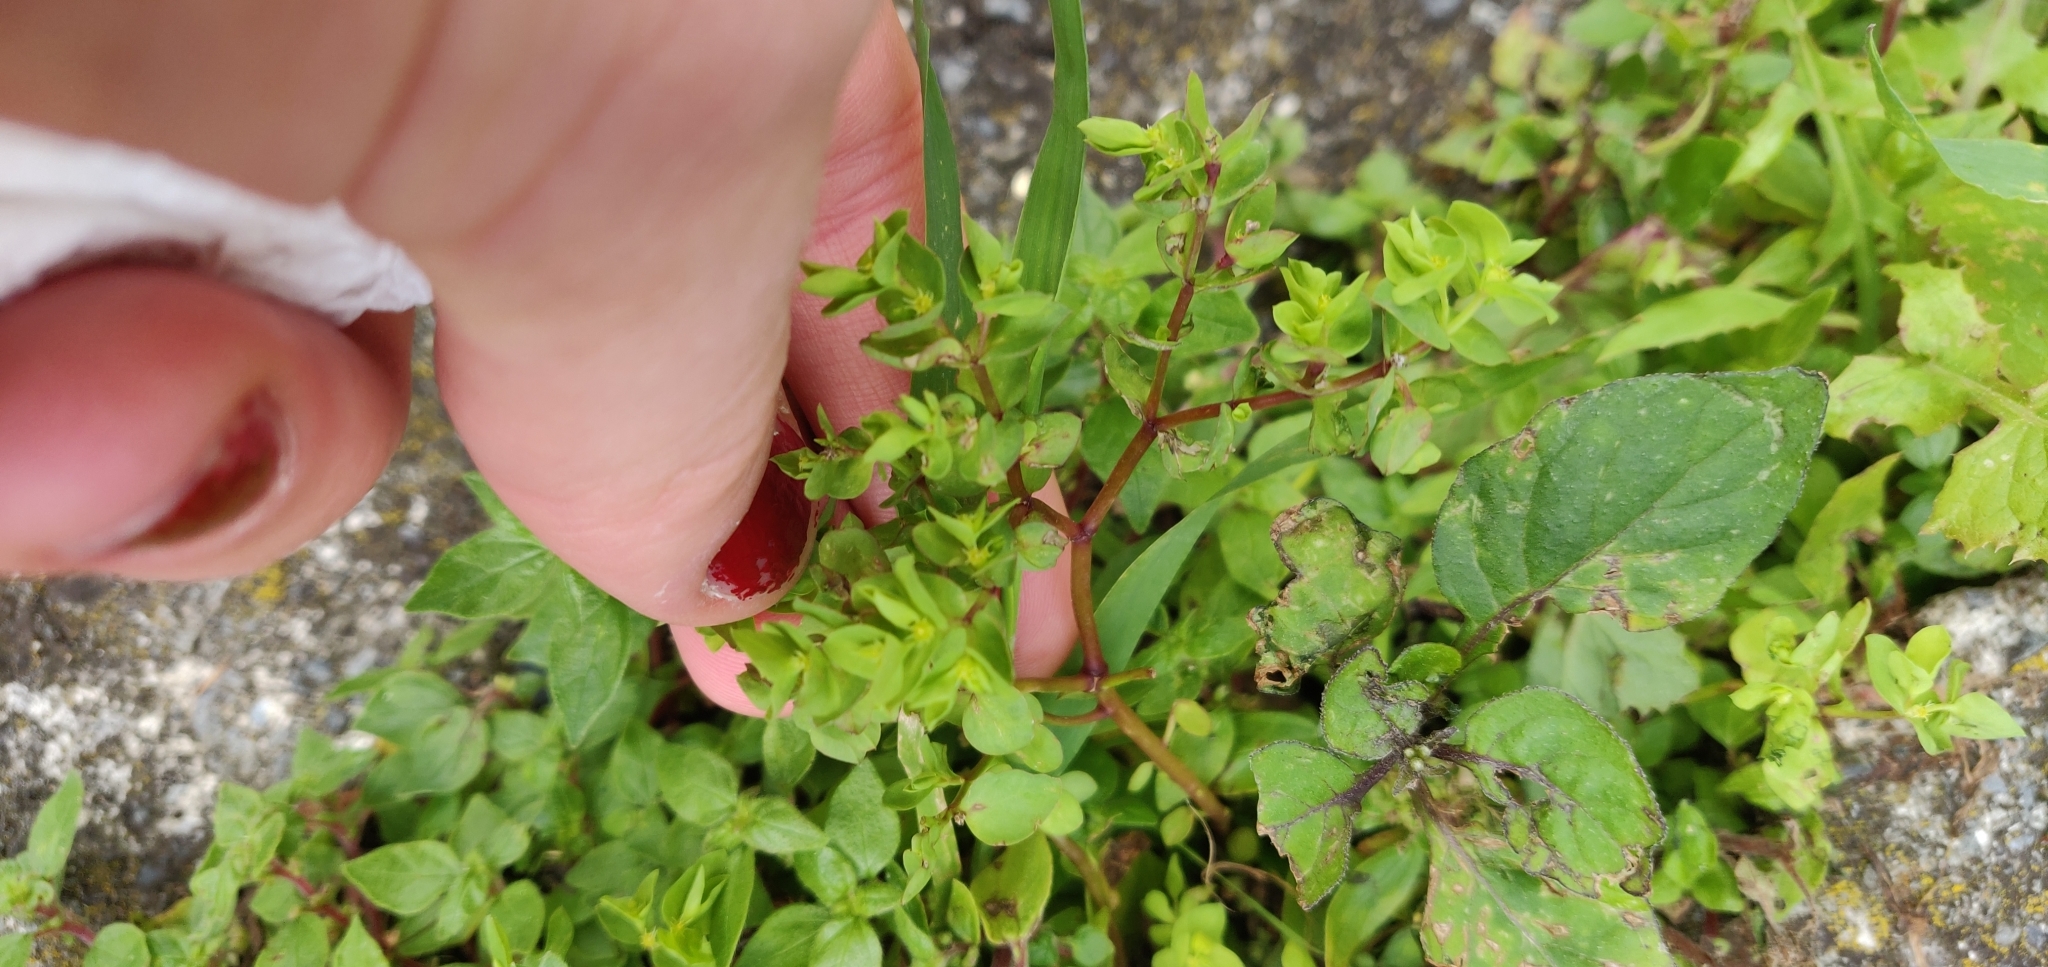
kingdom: Plantae
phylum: Tracheophyta
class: Magnoliopsida
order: Malpighiales
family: Euphorbiaceae
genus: Euphorbia
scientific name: Euphorbia peplus
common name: Petty spurge
